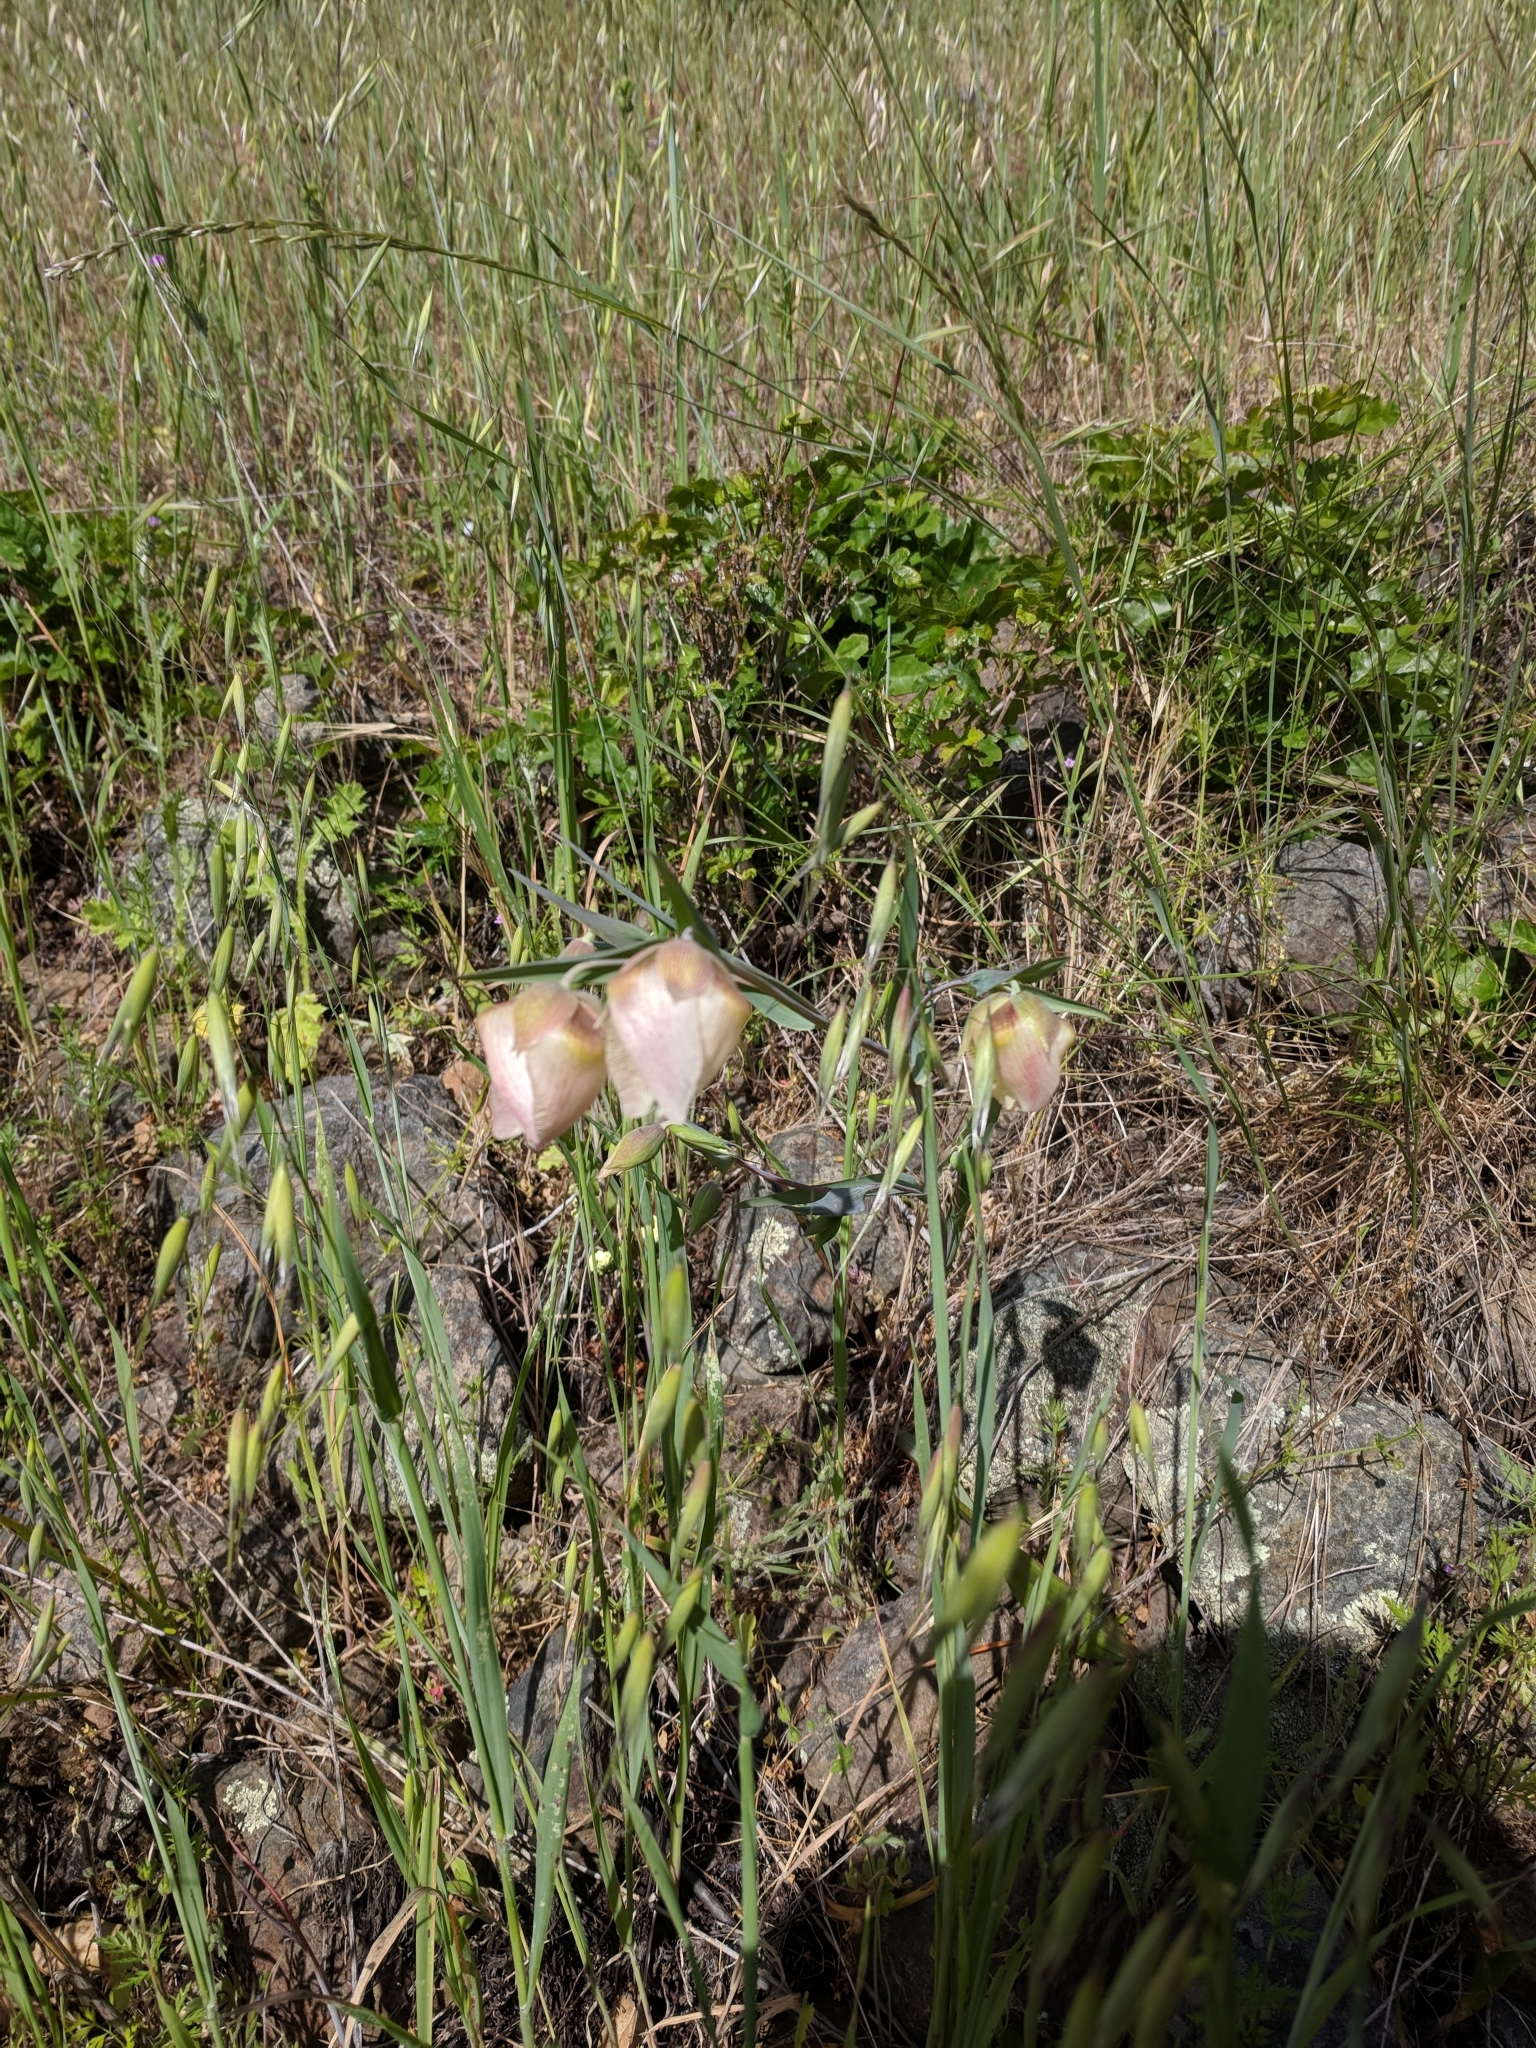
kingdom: Plantae
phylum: Tracheophyta
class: Liliopsida
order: Liliales
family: Liliaceae
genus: Calochortus
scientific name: Calochortus albus
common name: Fairy-lantern
